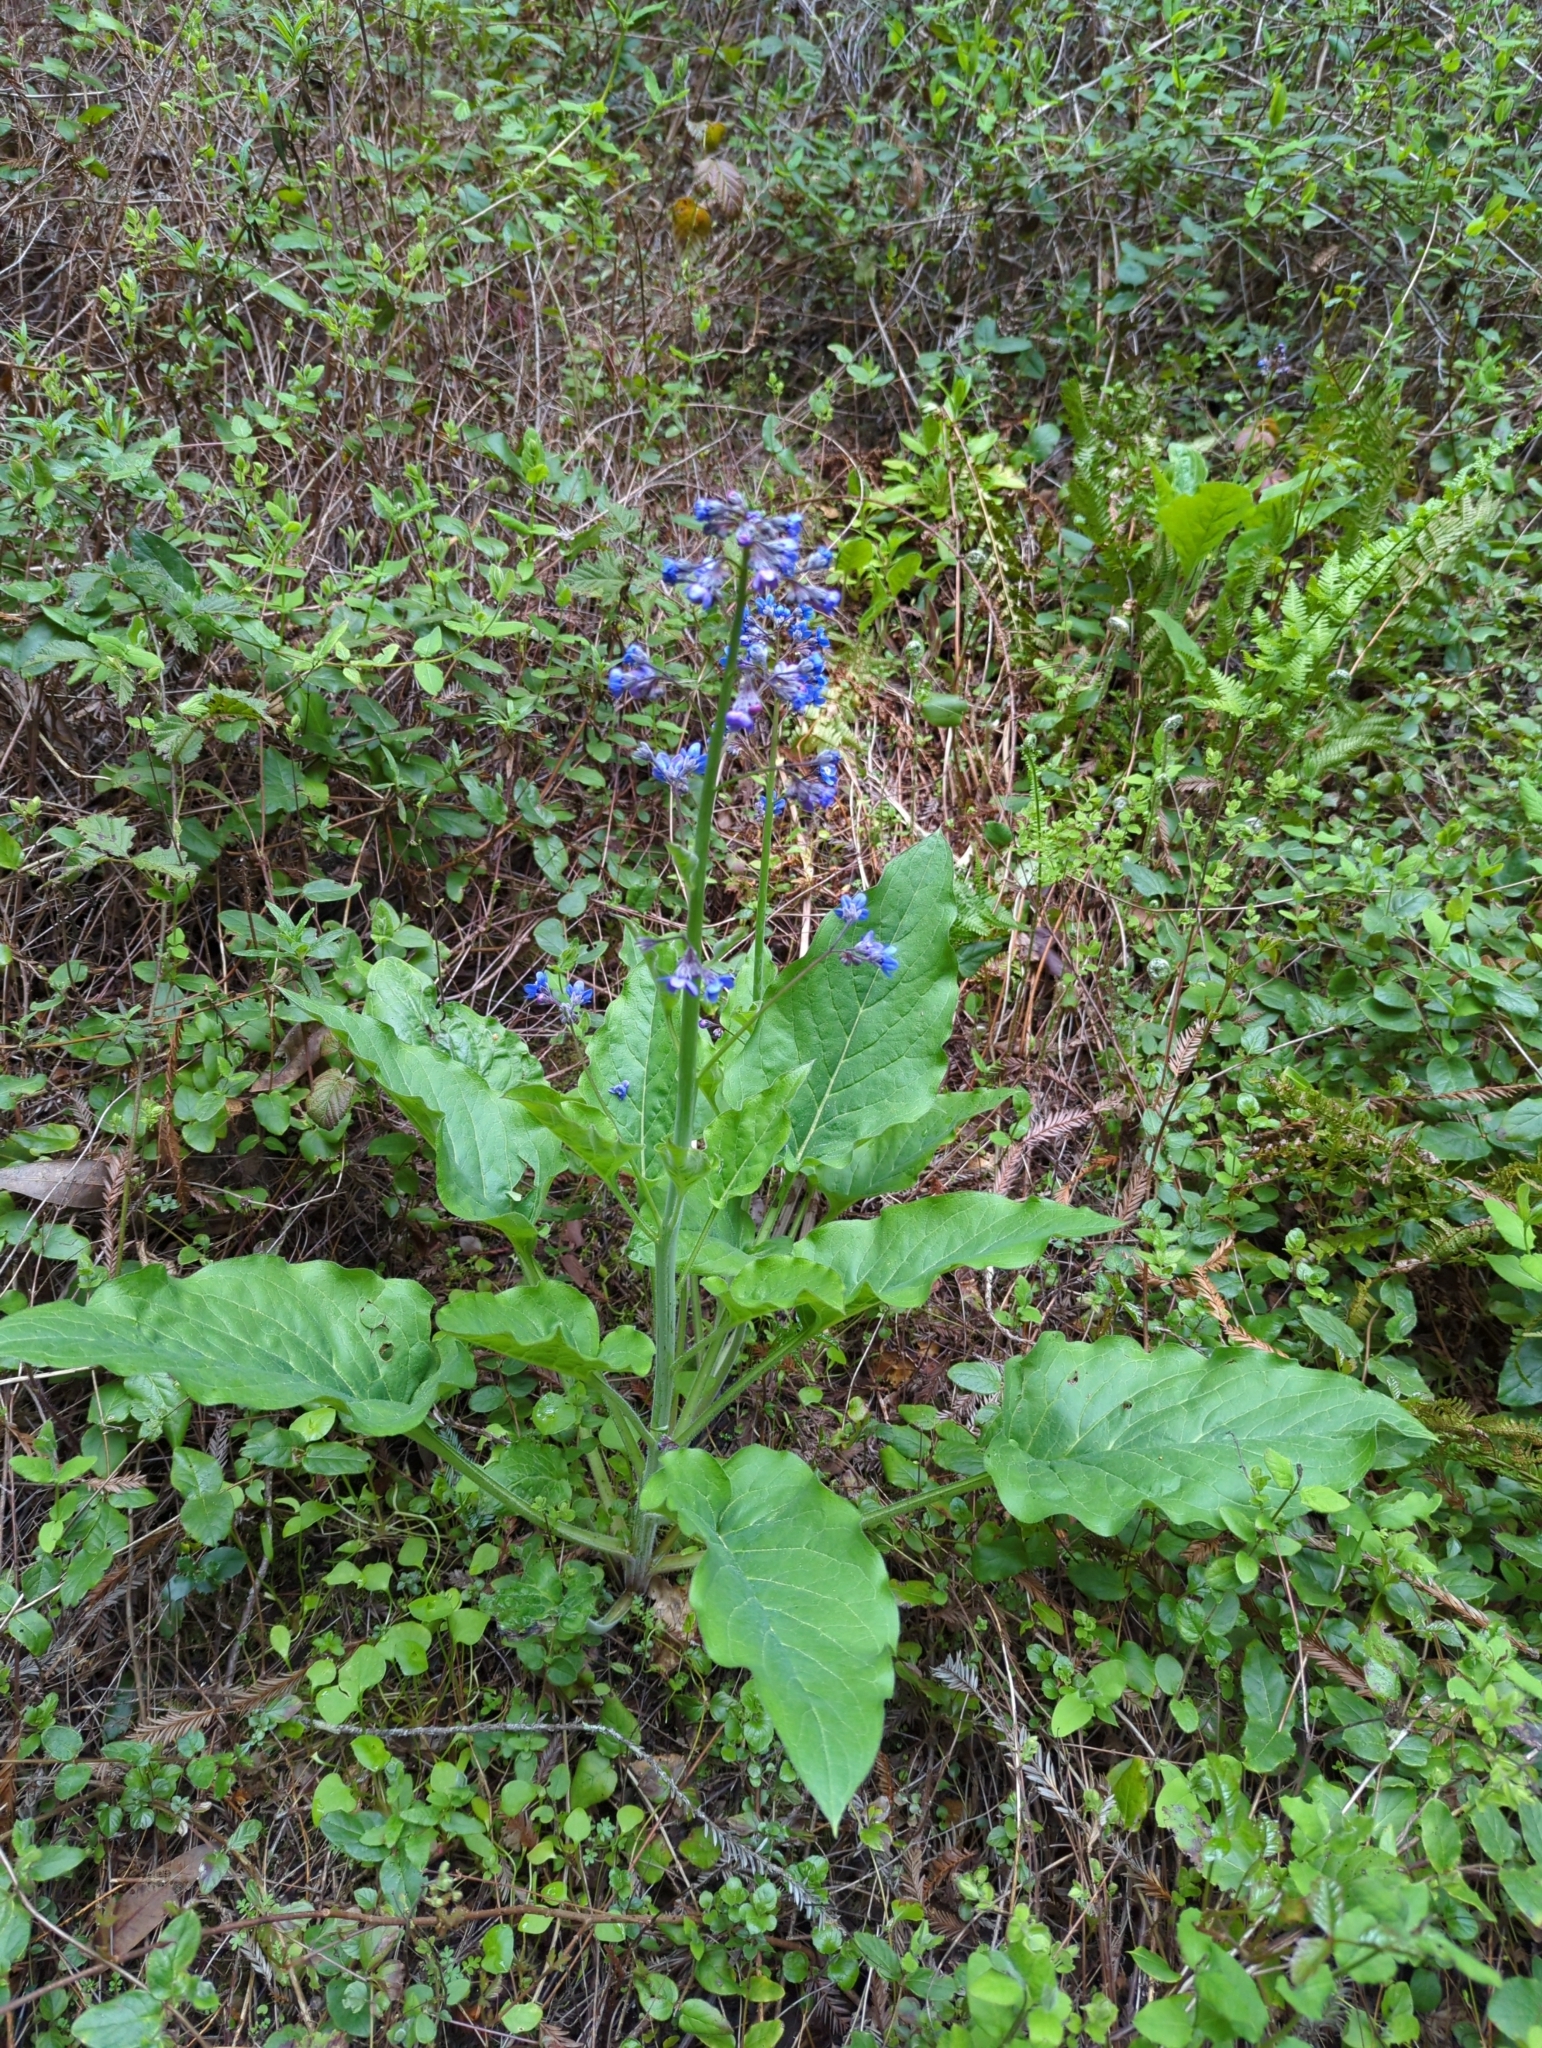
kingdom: Plantae
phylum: Tracheophyta
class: Magnoliopsida
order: Boraginales
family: Boraginaceae
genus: Adelinia
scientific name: Adelinia grande
